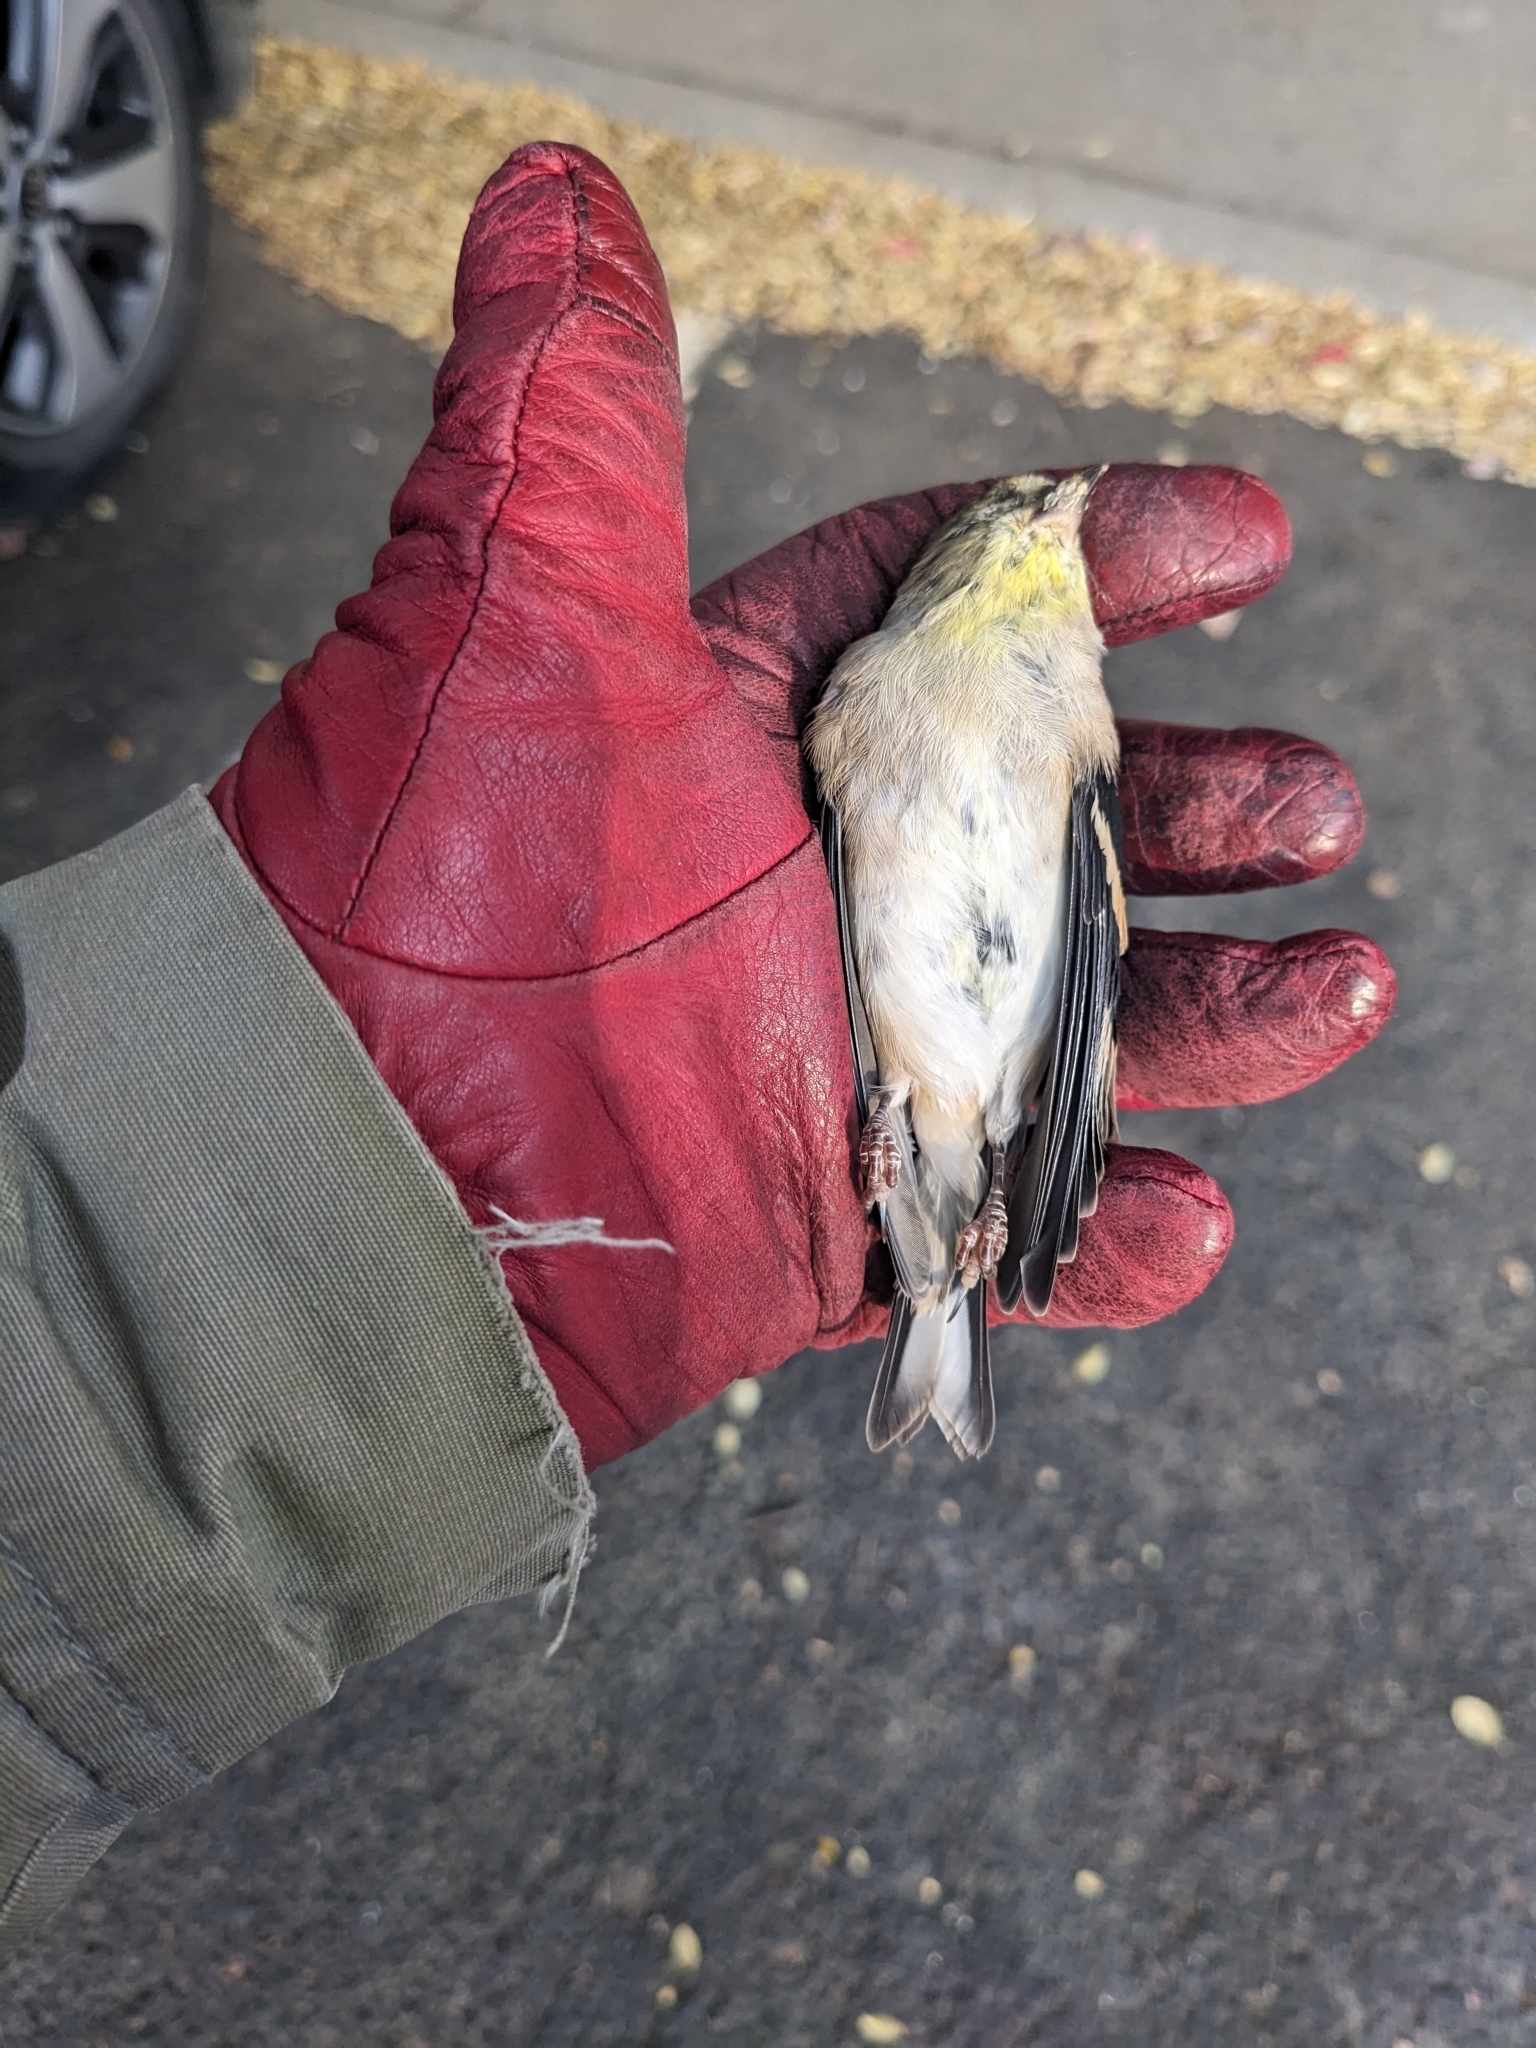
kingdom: Animalia
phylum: Chordata
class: Aves
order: Passeriformes
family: Fringillidae
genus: Spinus
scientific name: Spinus tristis
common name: American goldfinch
